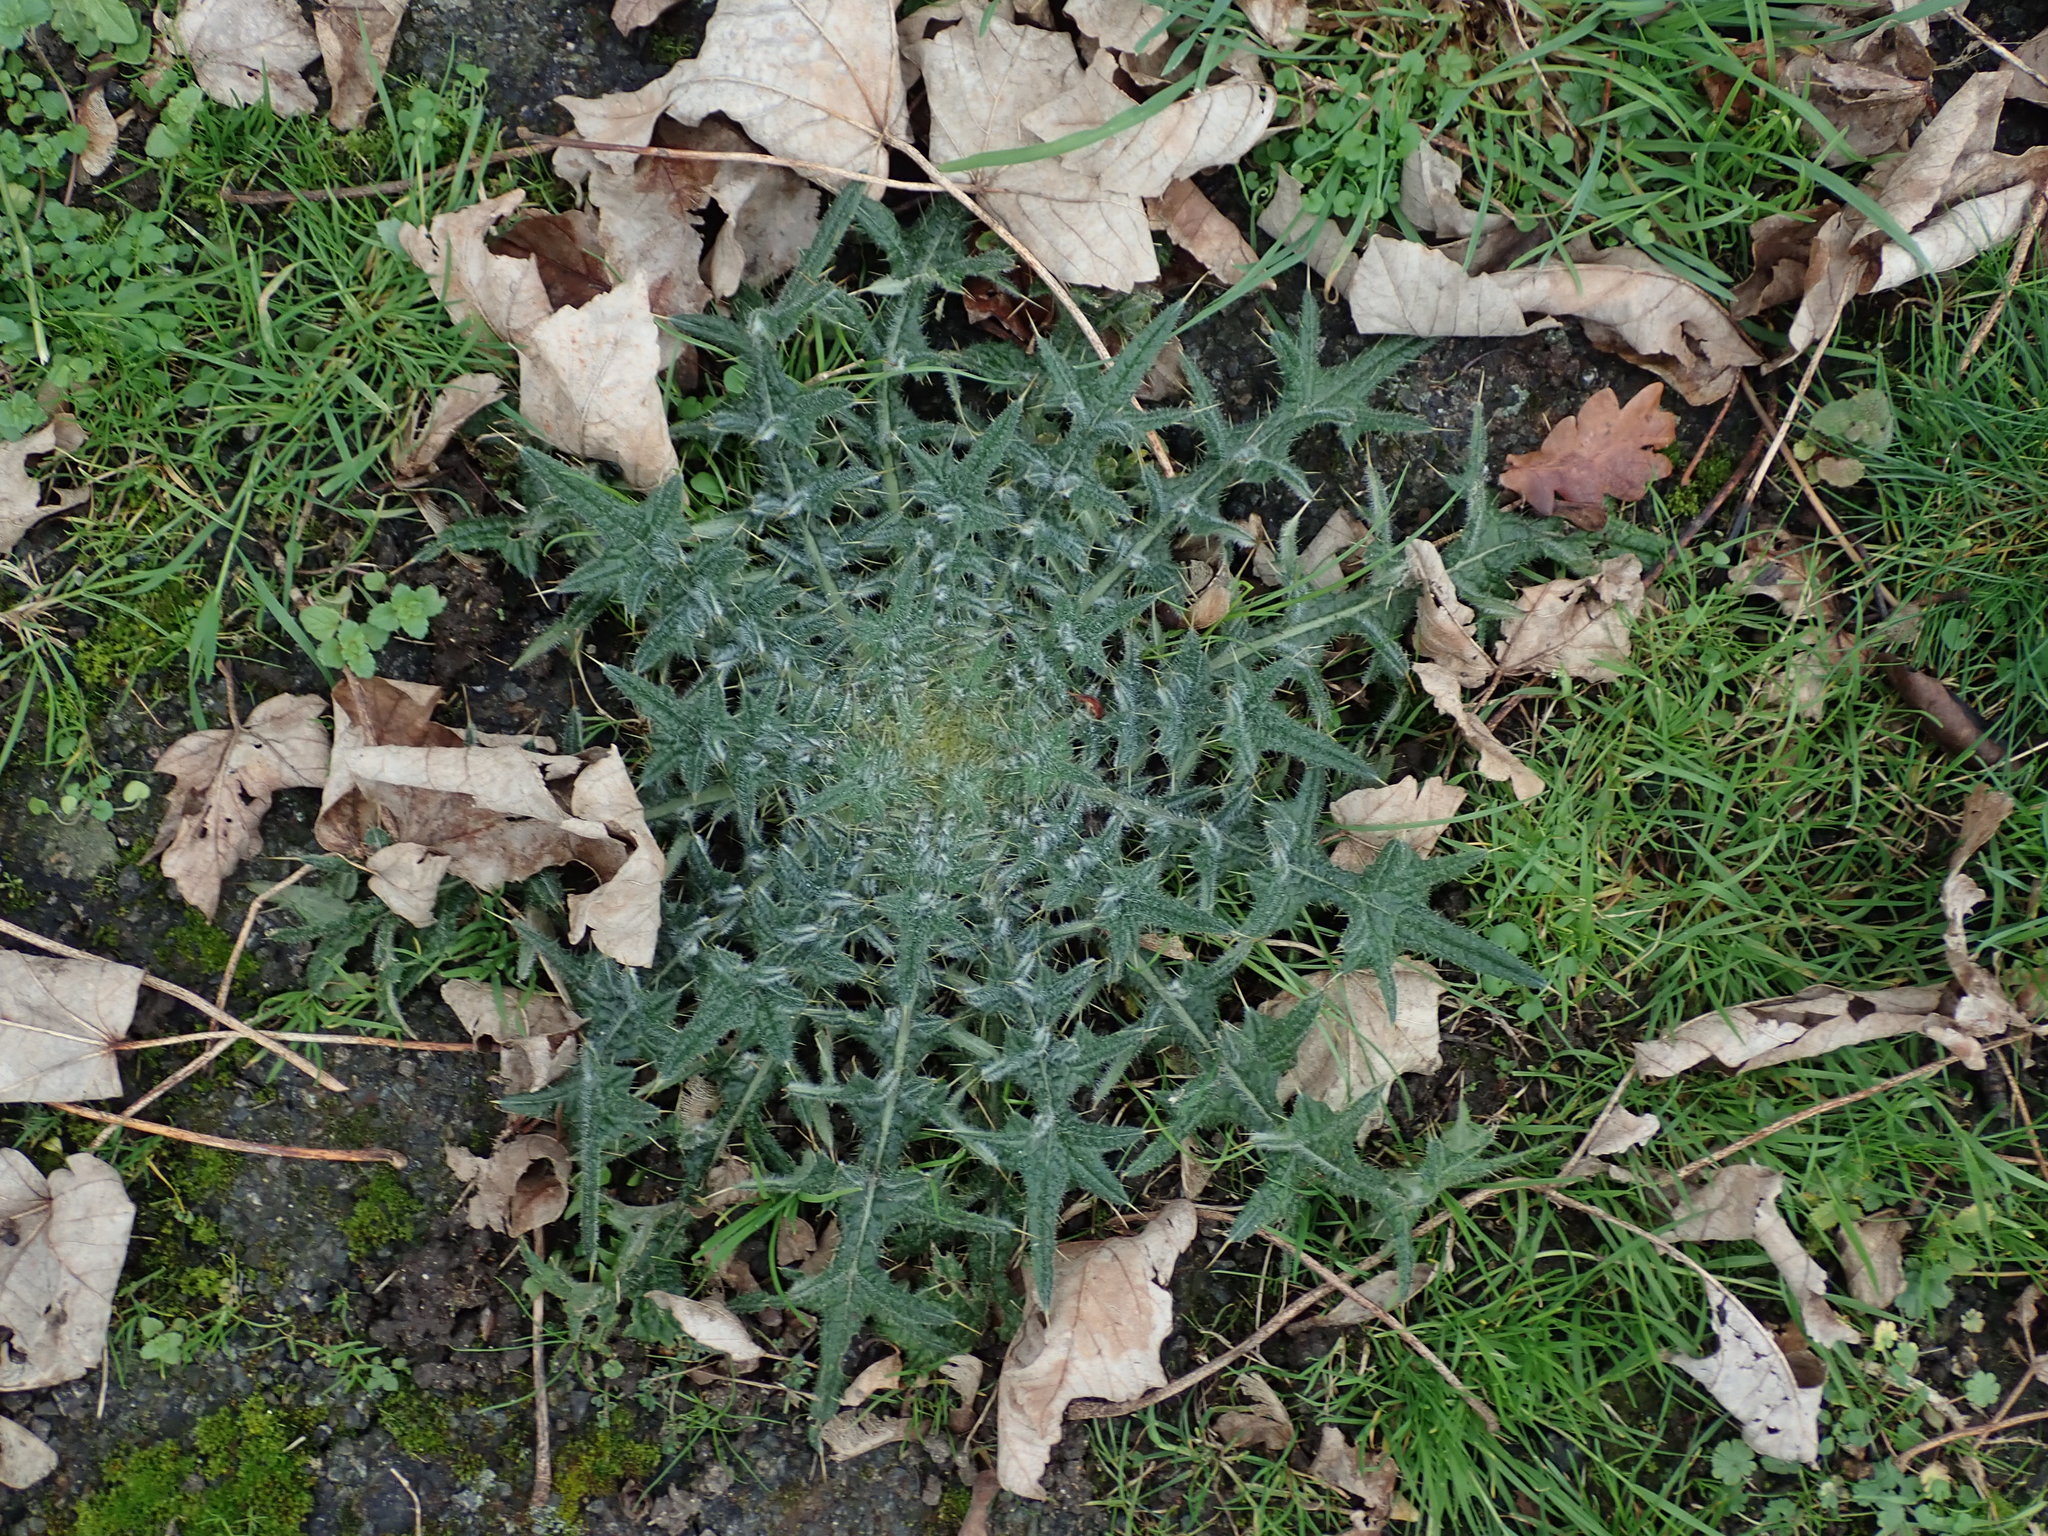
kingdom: Plantae
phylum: Tracheophyta
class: Magnoliopsida
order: Asterales
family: Asteraceae
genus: Cirsium
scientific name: Cirsium vulgare
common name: Bull thistle
